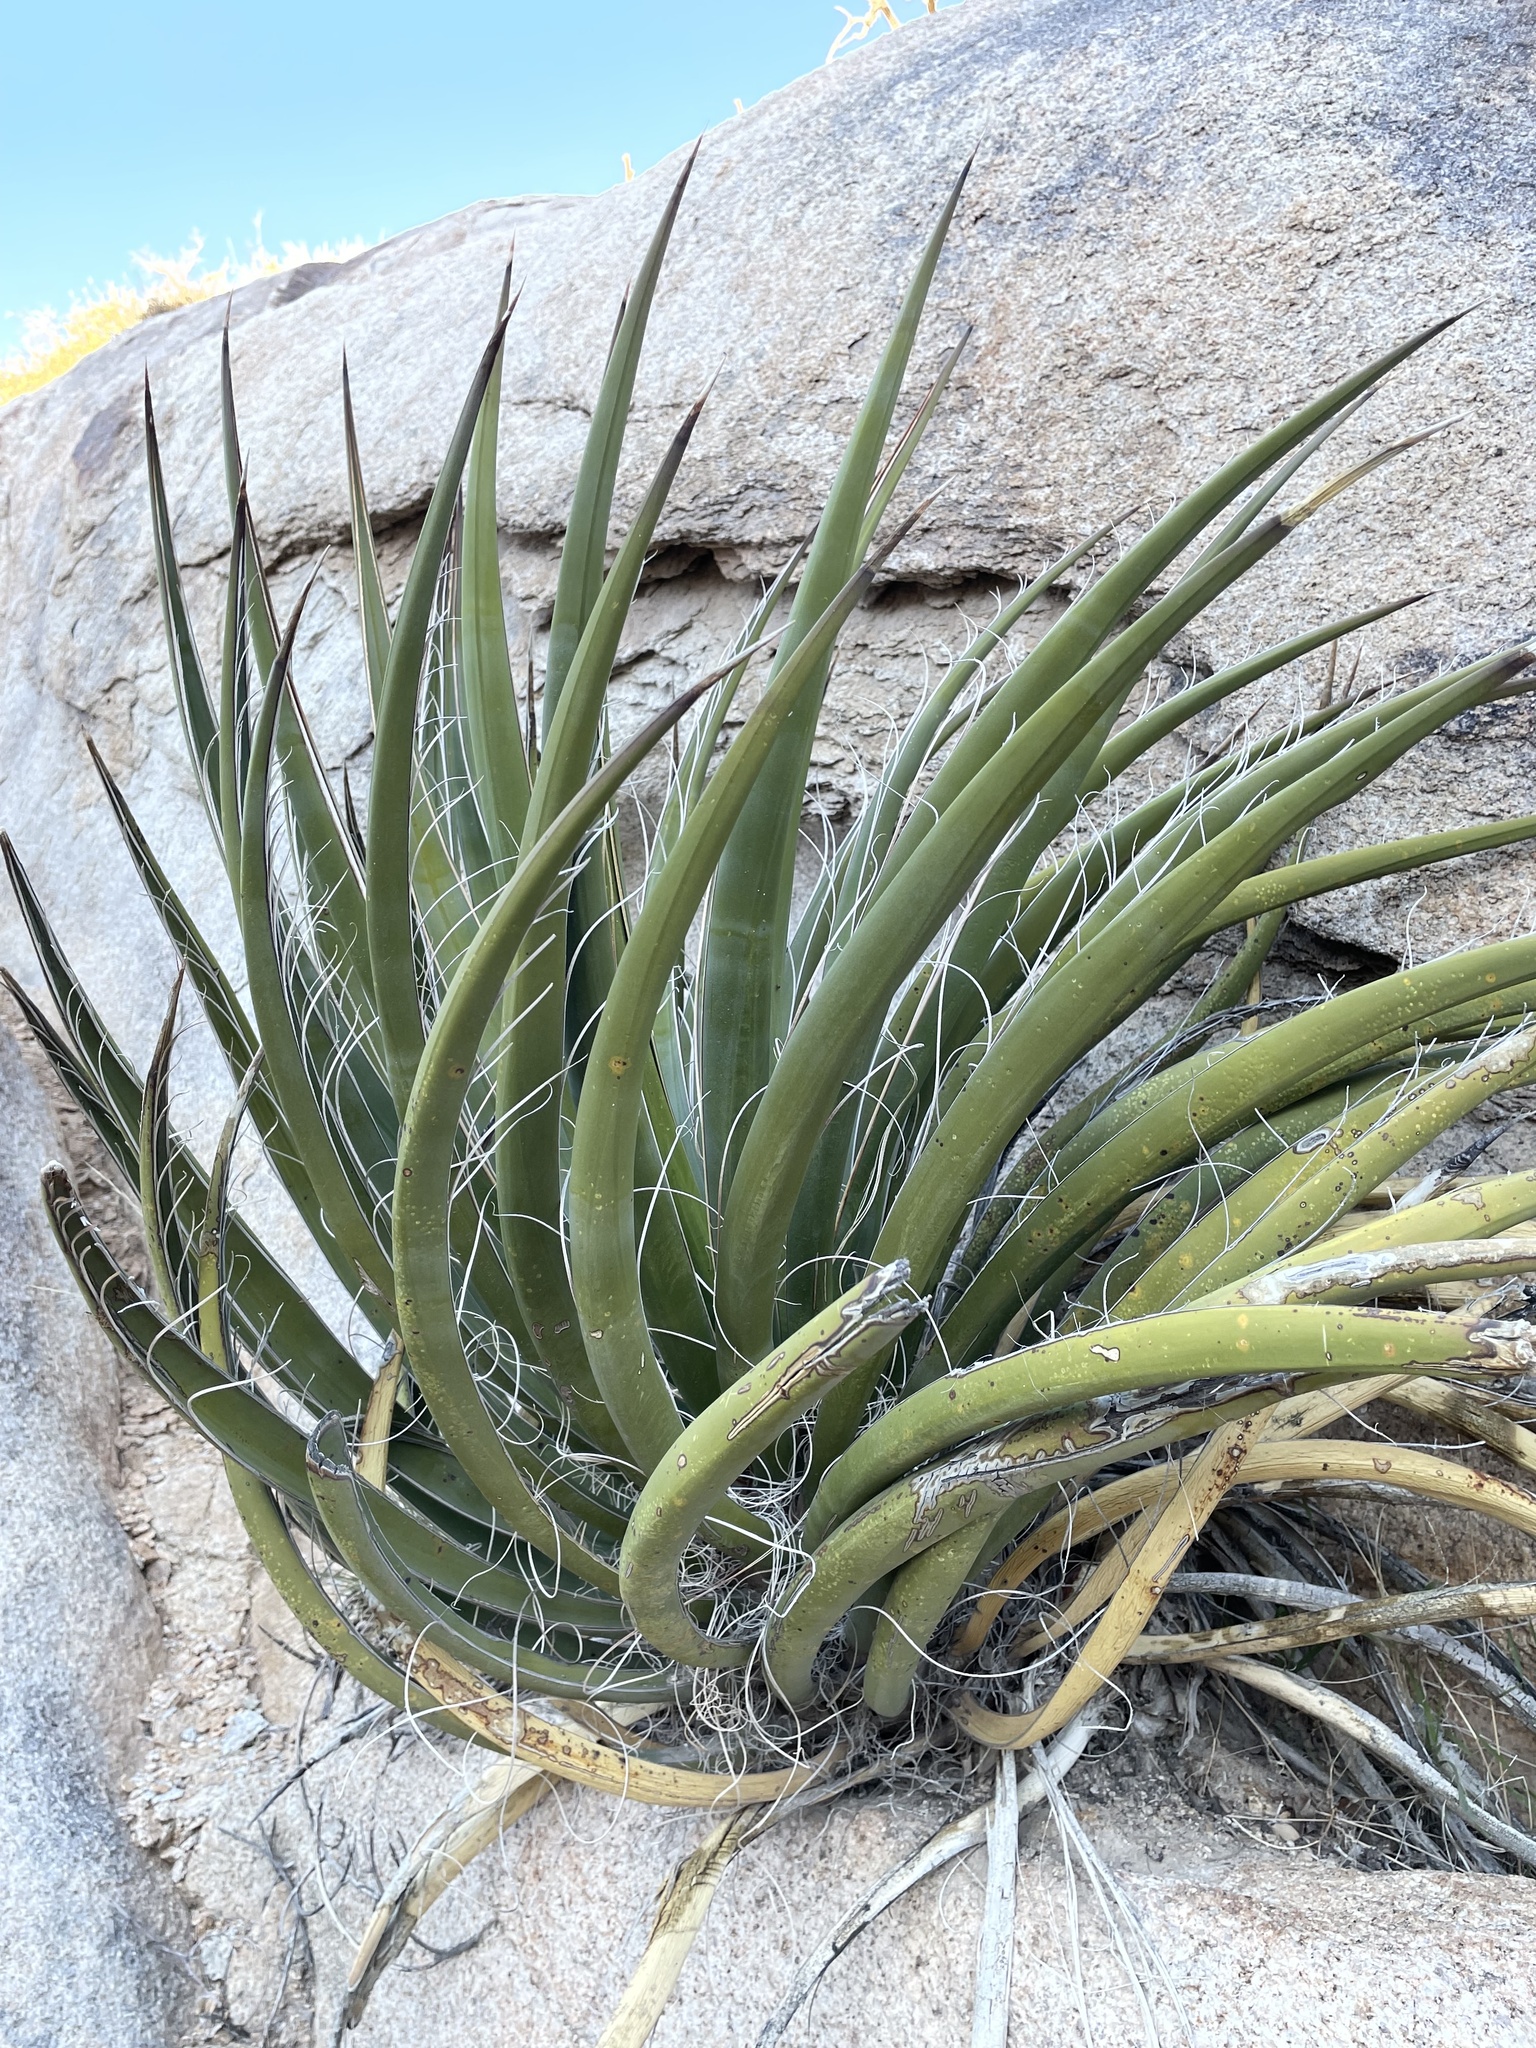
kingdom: Plantae
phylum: Tracheophyta
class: Liliopsida
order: Asparagales
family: Asparagaceae
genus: Yucca
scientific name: Yucca schidigera
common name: Mojave yucca
